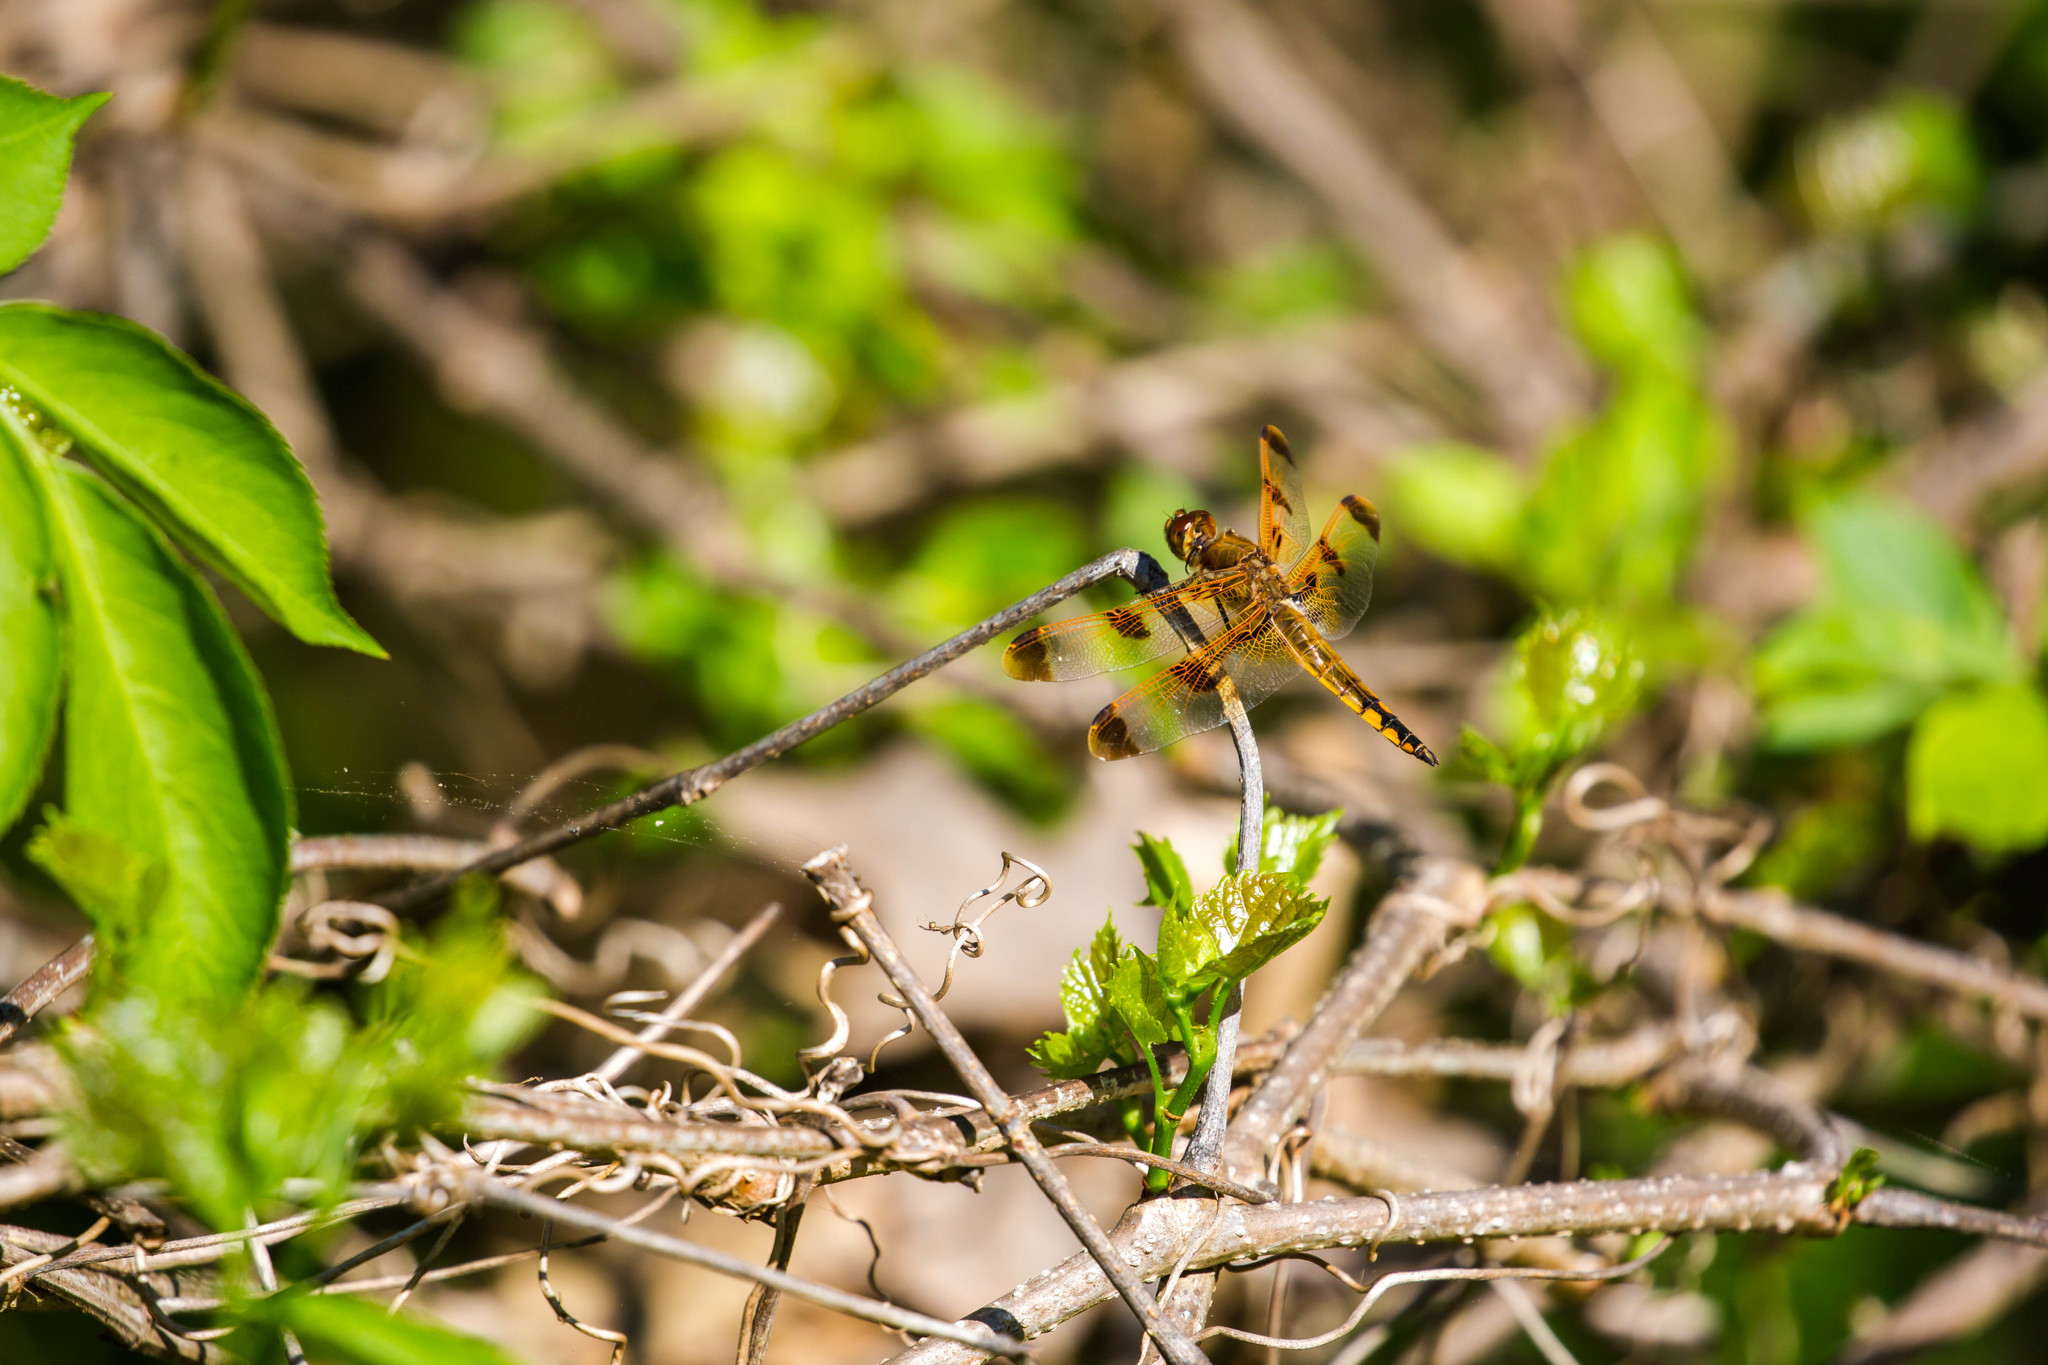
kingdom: Animalia
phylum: Arthropoda
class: Insecta
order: Odonata
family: Libellulidae
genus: Libellula
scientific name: Libellula semifasciata
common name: Painted skimmer
